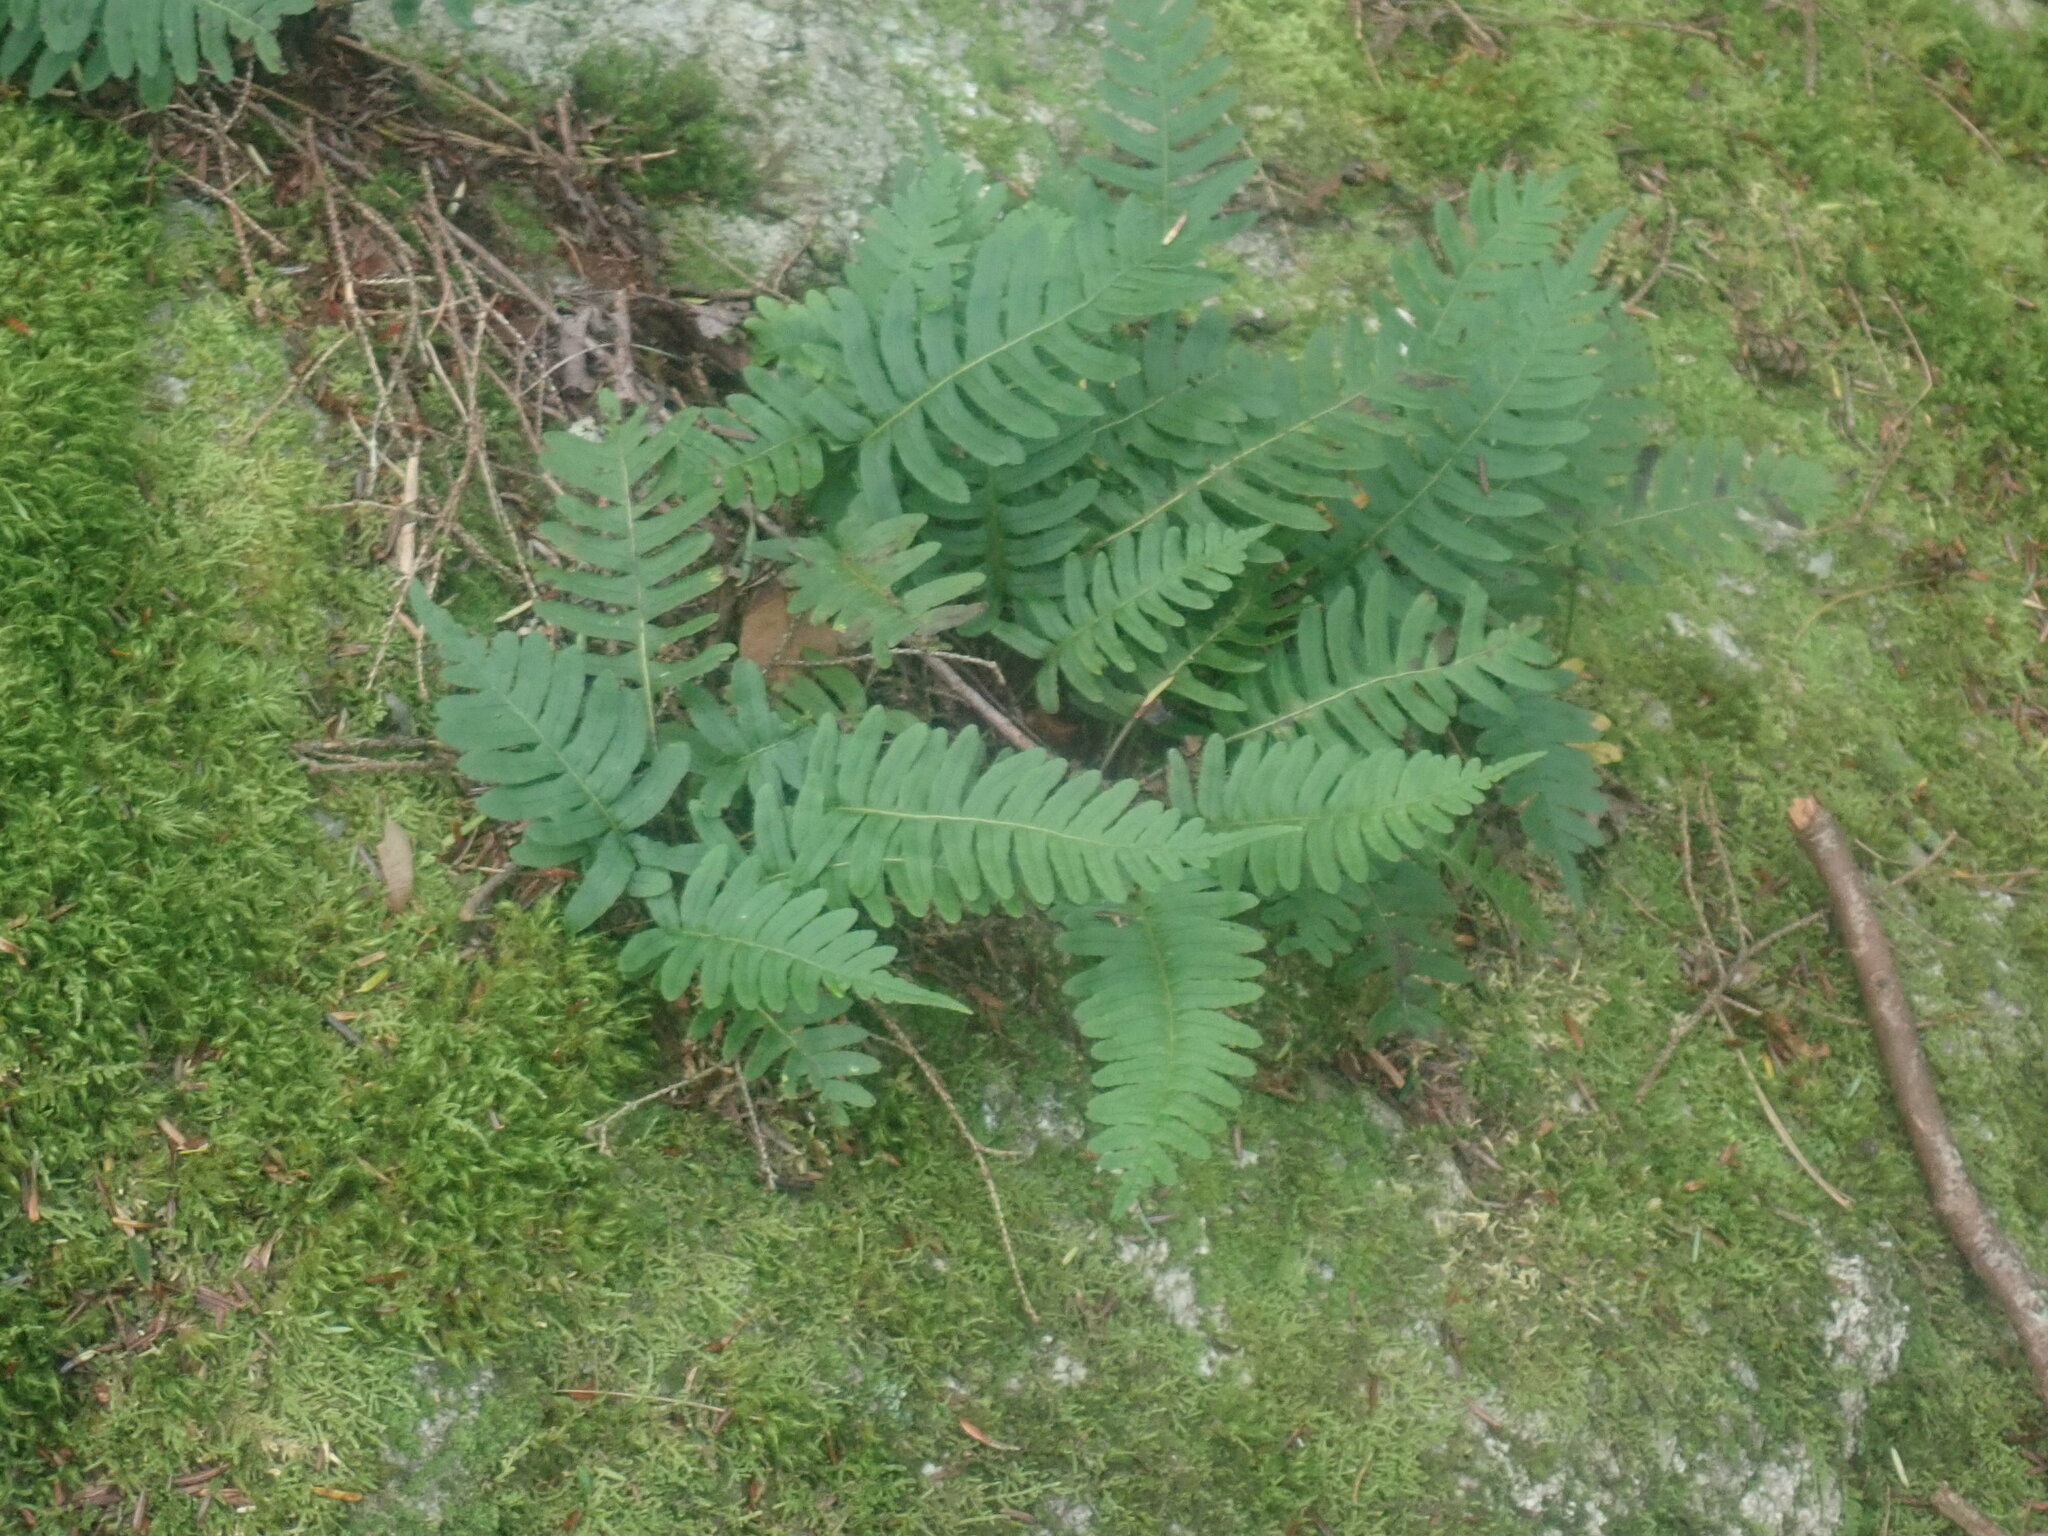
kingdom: Plantae
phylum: Tracheophyta
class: Polypodiopsida
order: Polypodiales
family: Polypodiaceae
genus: Polypodium
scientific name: Polypodium
